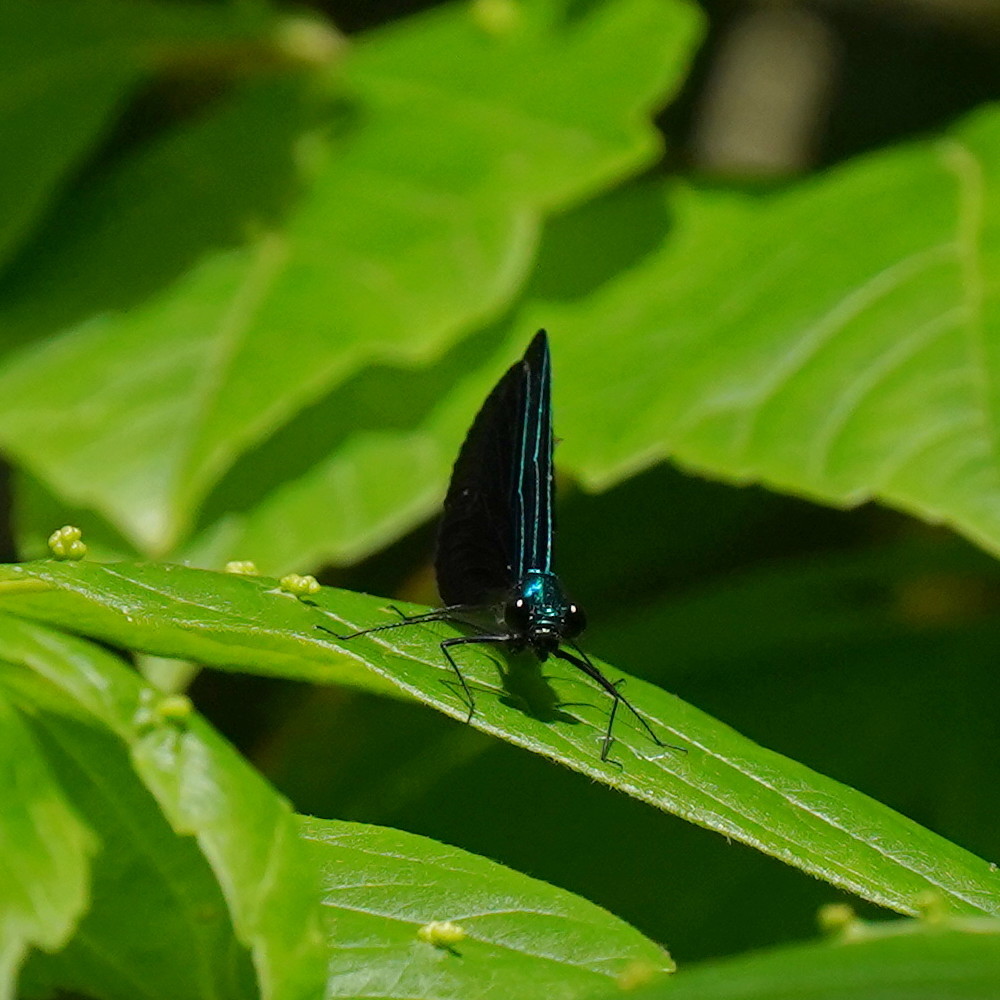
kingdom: Animalia
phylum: Arthropoda
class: Insecta
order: Odonata
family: Calopterygidae
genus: Calopteryx
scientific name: Calopteryx maculata
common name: Ebony jewelwing
